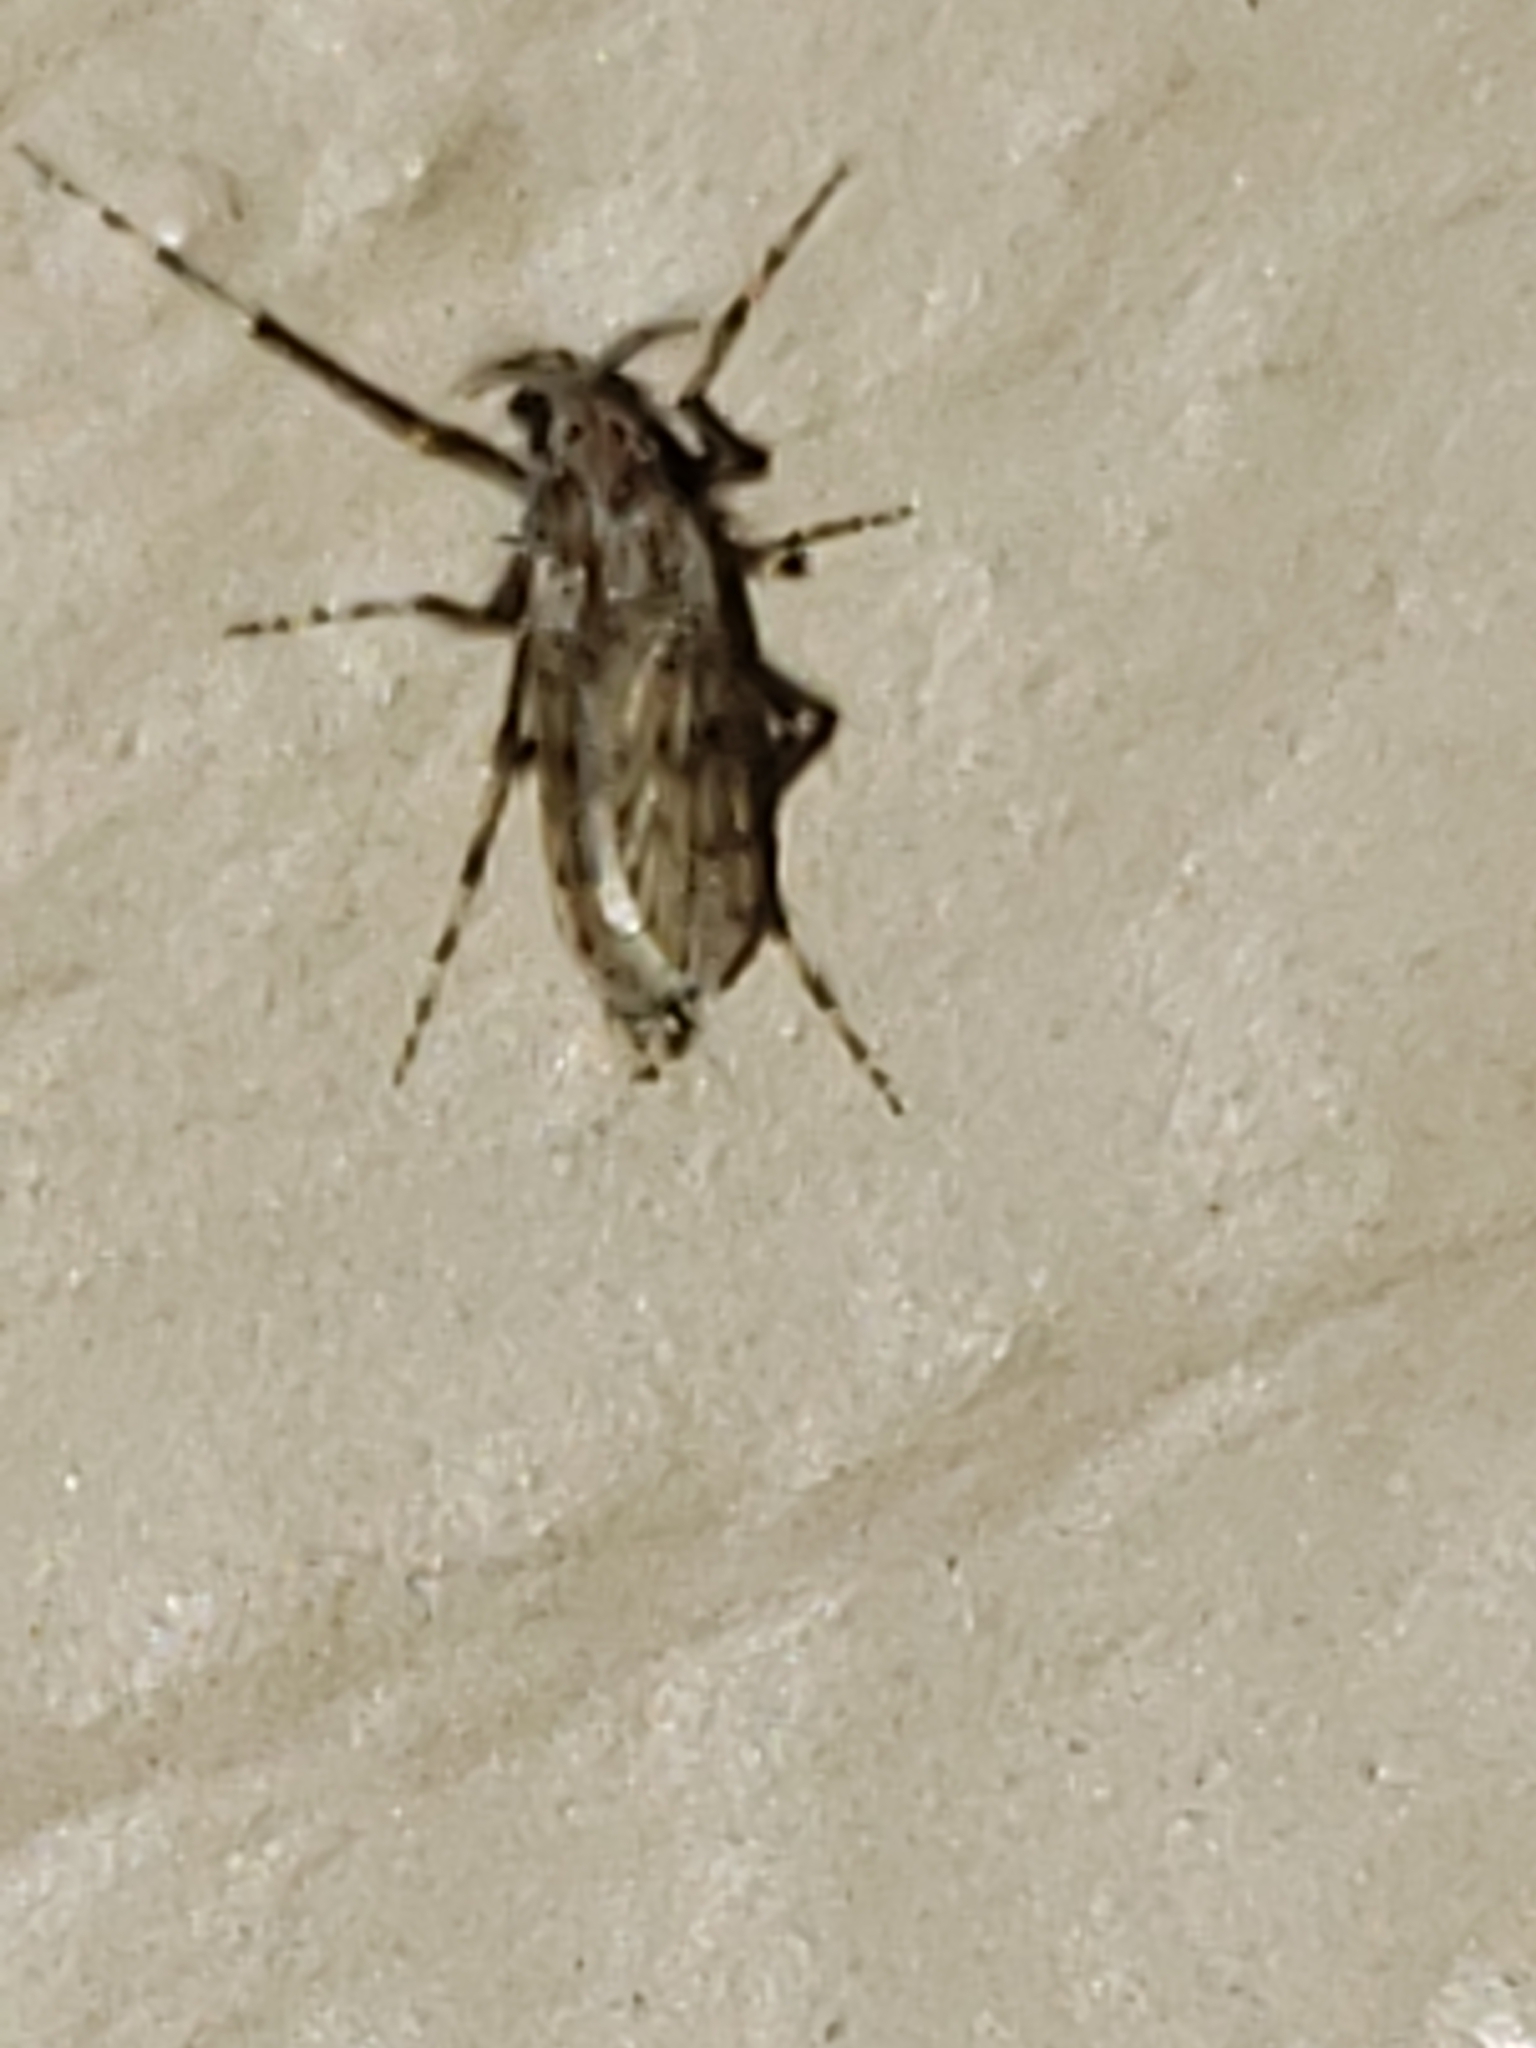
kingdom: Animalia
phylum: Arthropoda
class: Insecta
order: Diptera
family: Chaoboridae
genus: Chaoborus
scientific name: Chaoborus punctipennis
